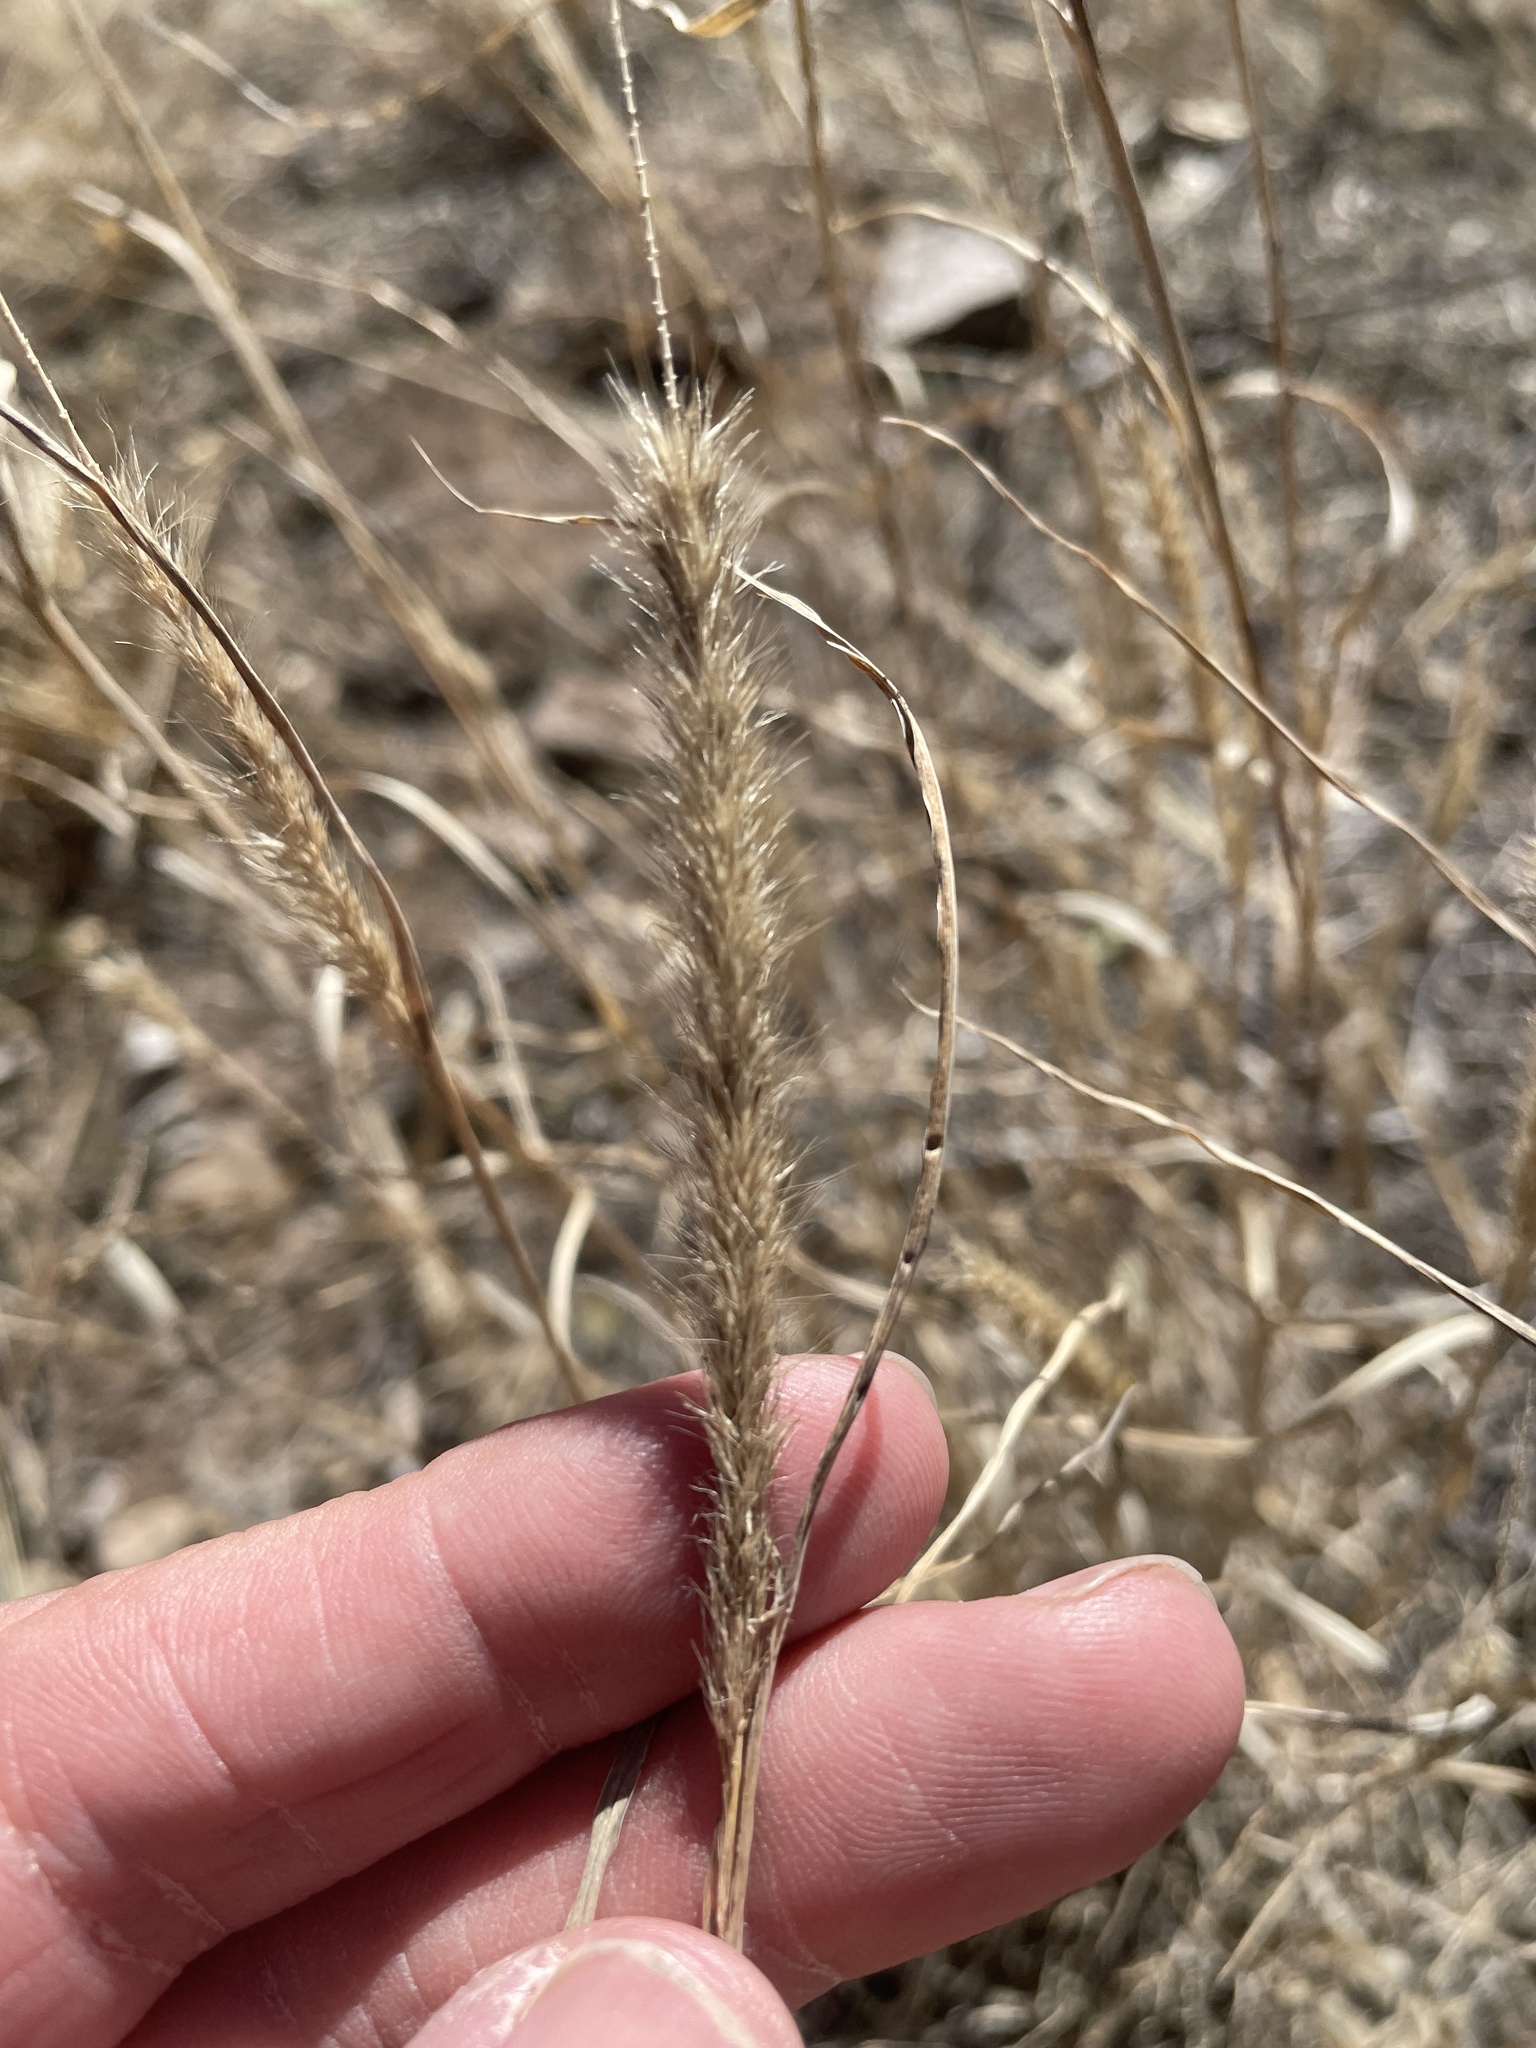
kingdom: Plantae
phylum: Tracheophyta
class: Liliopsida
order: Poales
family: Poaceae
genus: Muhlenbergia
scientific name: Muhlenbergia phleoides
